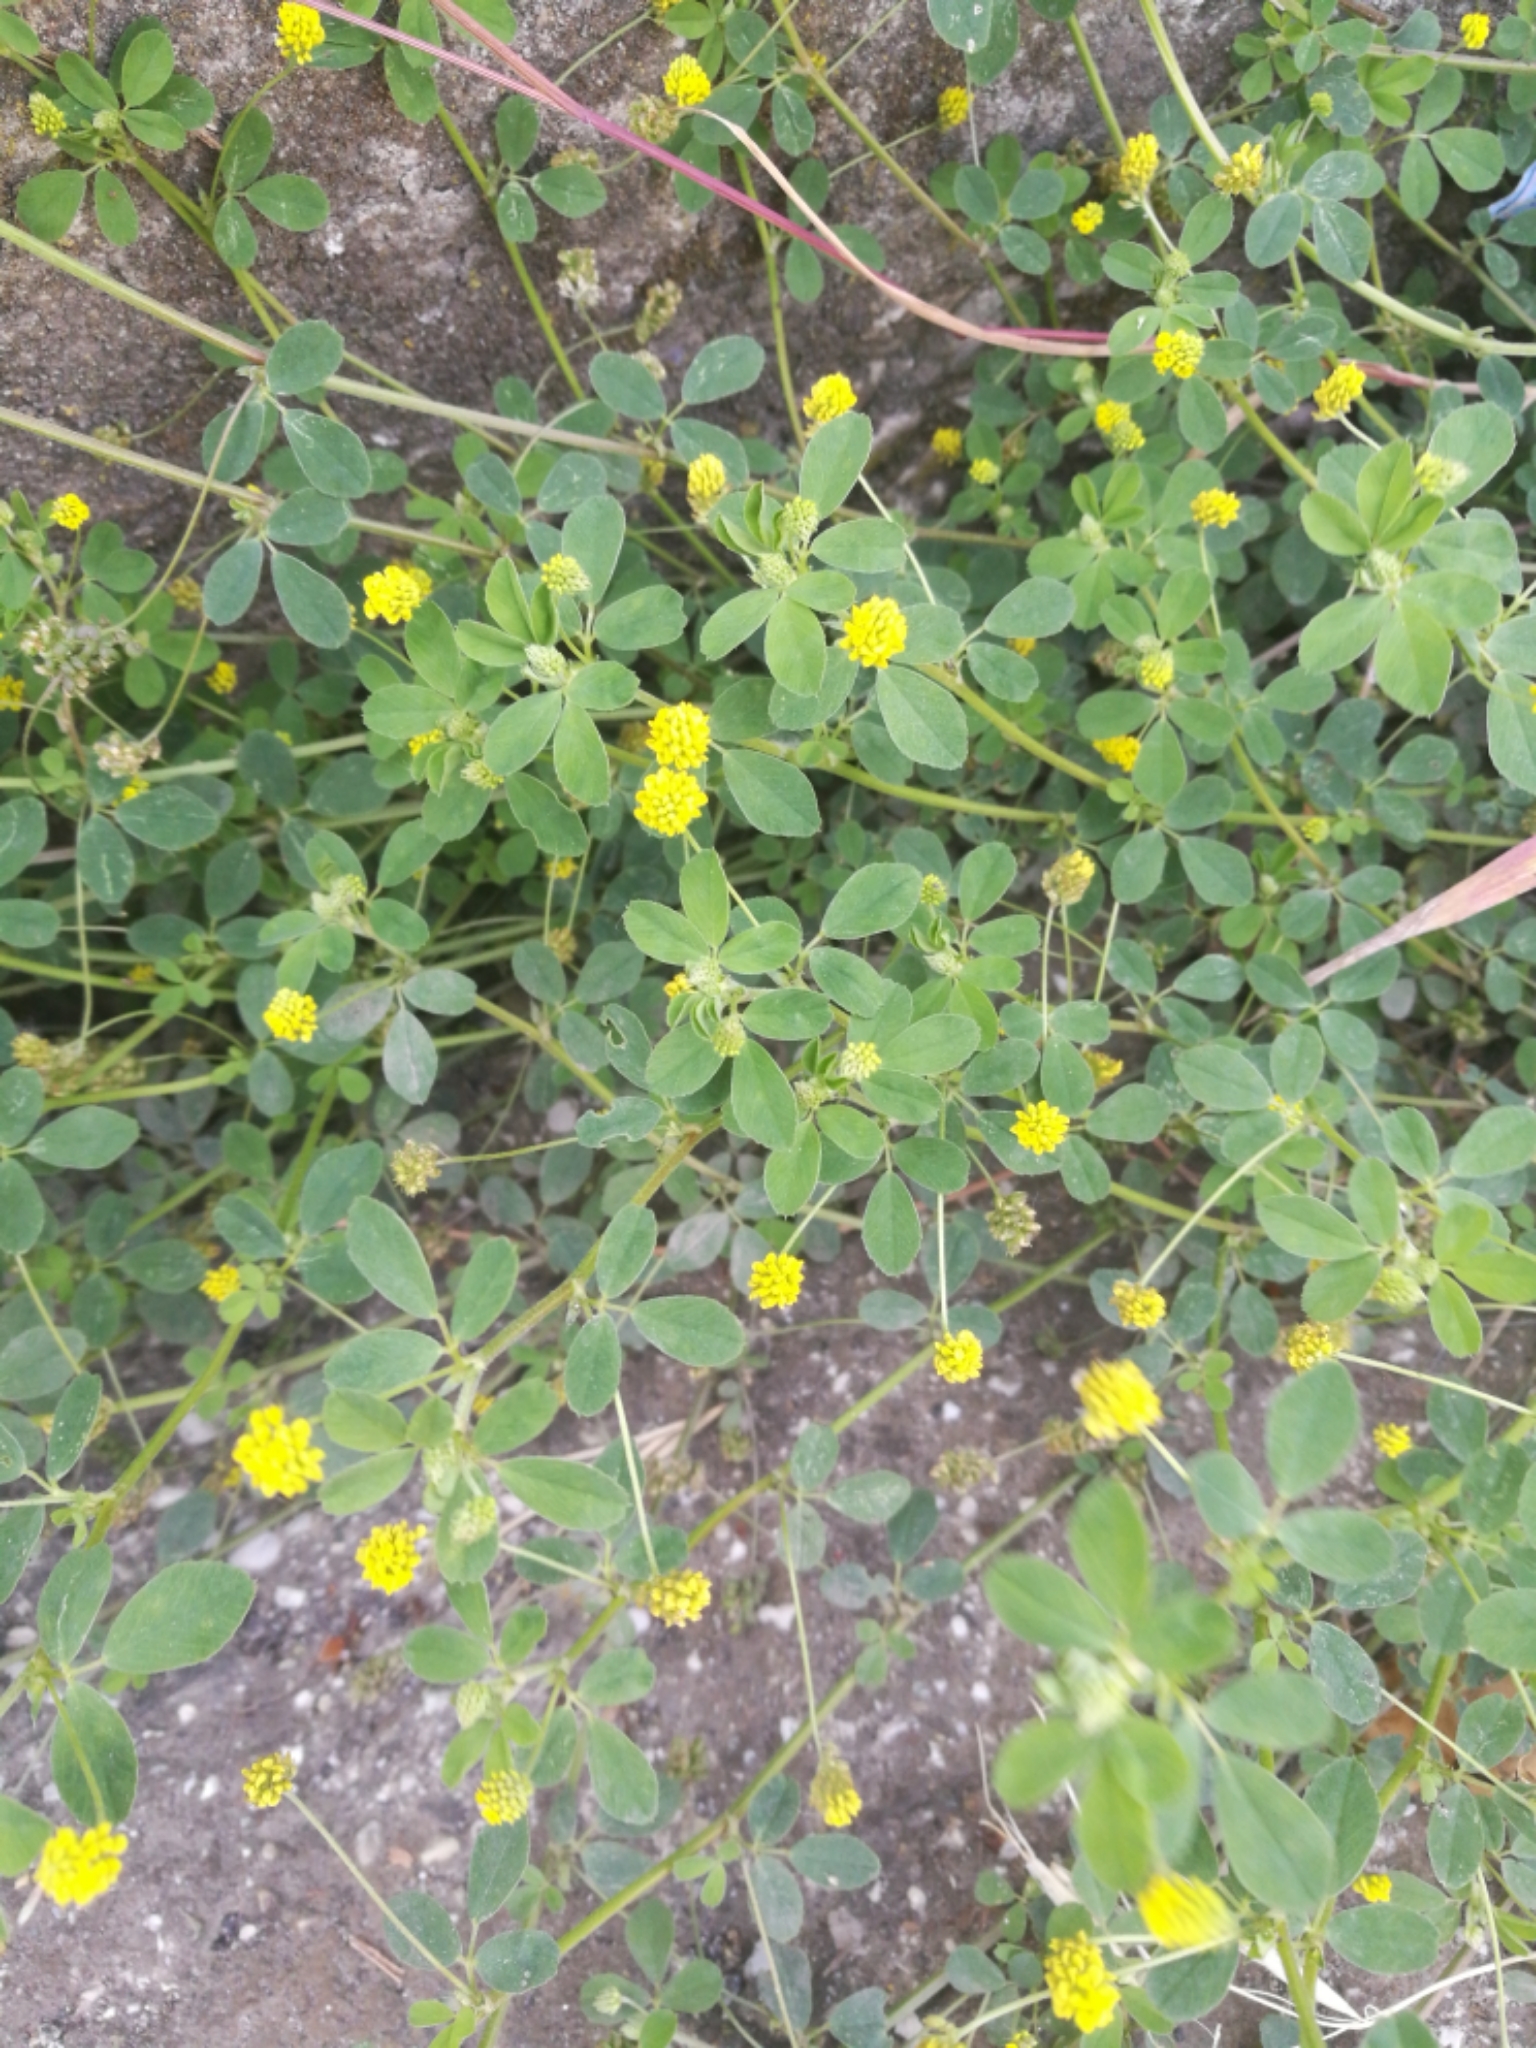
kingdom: Plantae
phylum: Tracheophyta
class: Magnoliopsida
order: Fabales
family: Fabaceae
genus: Medicago
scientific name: Medicago lupulina
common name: Black medick
